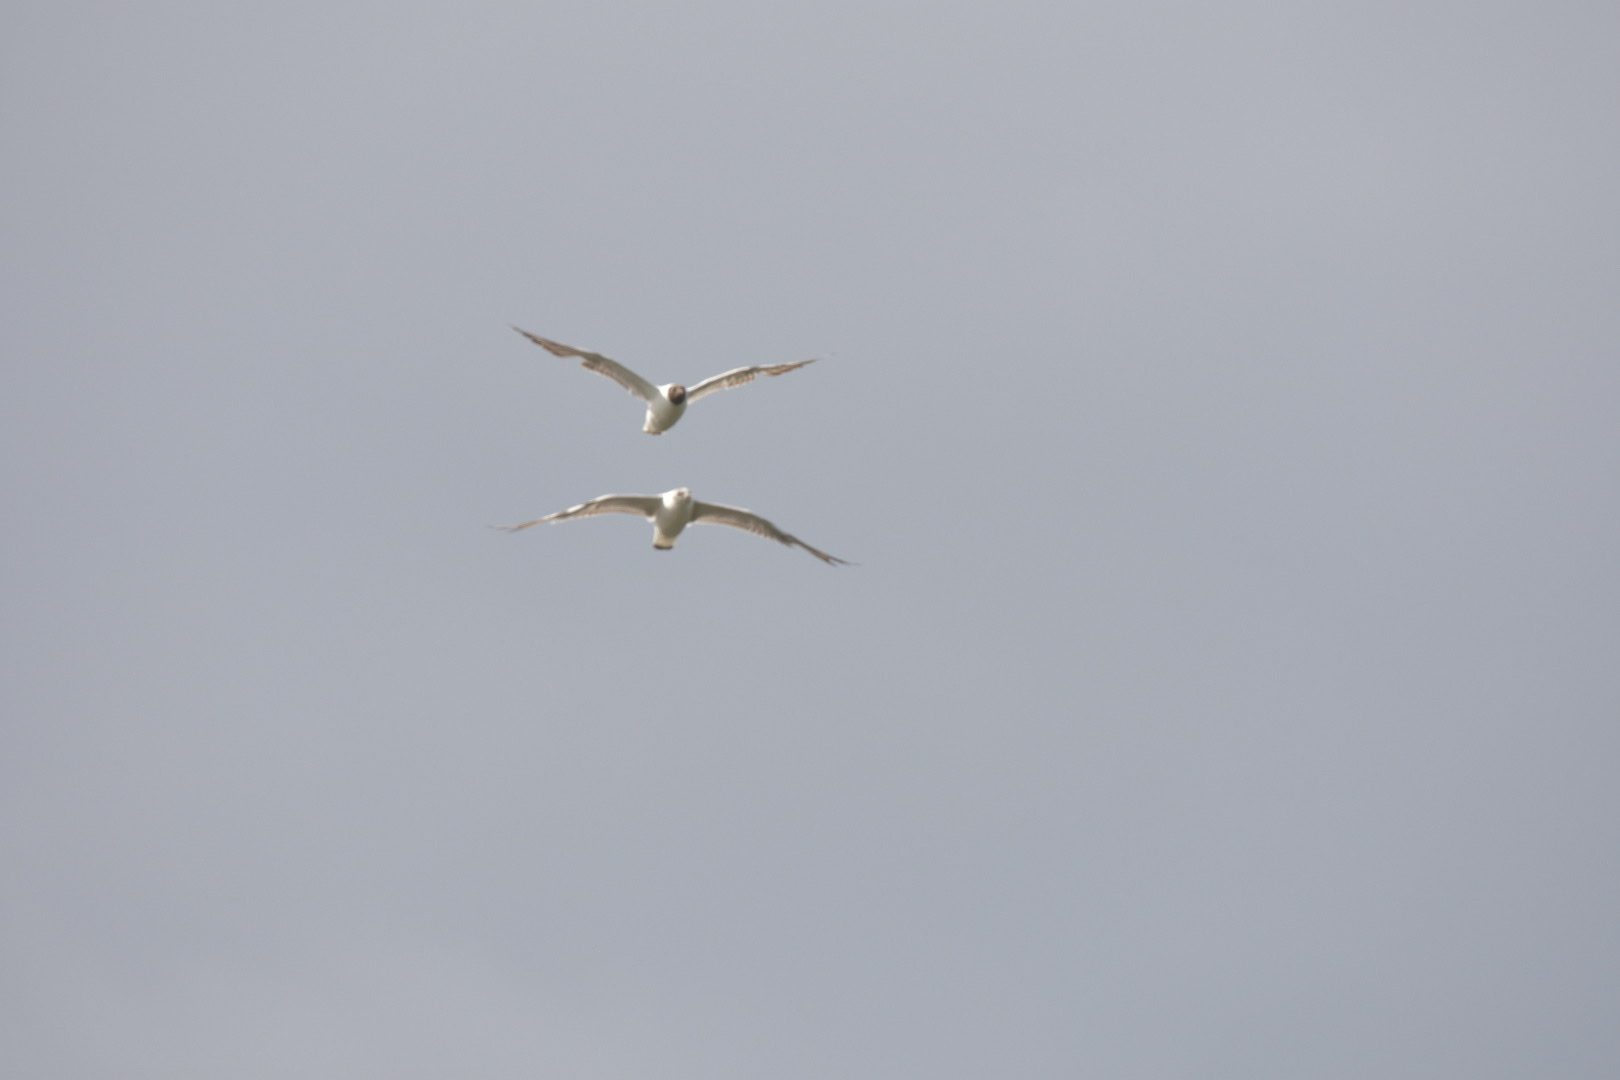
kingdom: Animalia
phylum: Chordata
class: Aves
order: Charadriiformes
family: Laridae
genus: Chroicocephalus
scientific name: Chroicocephalus ridibundus
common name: Black-headed gull
